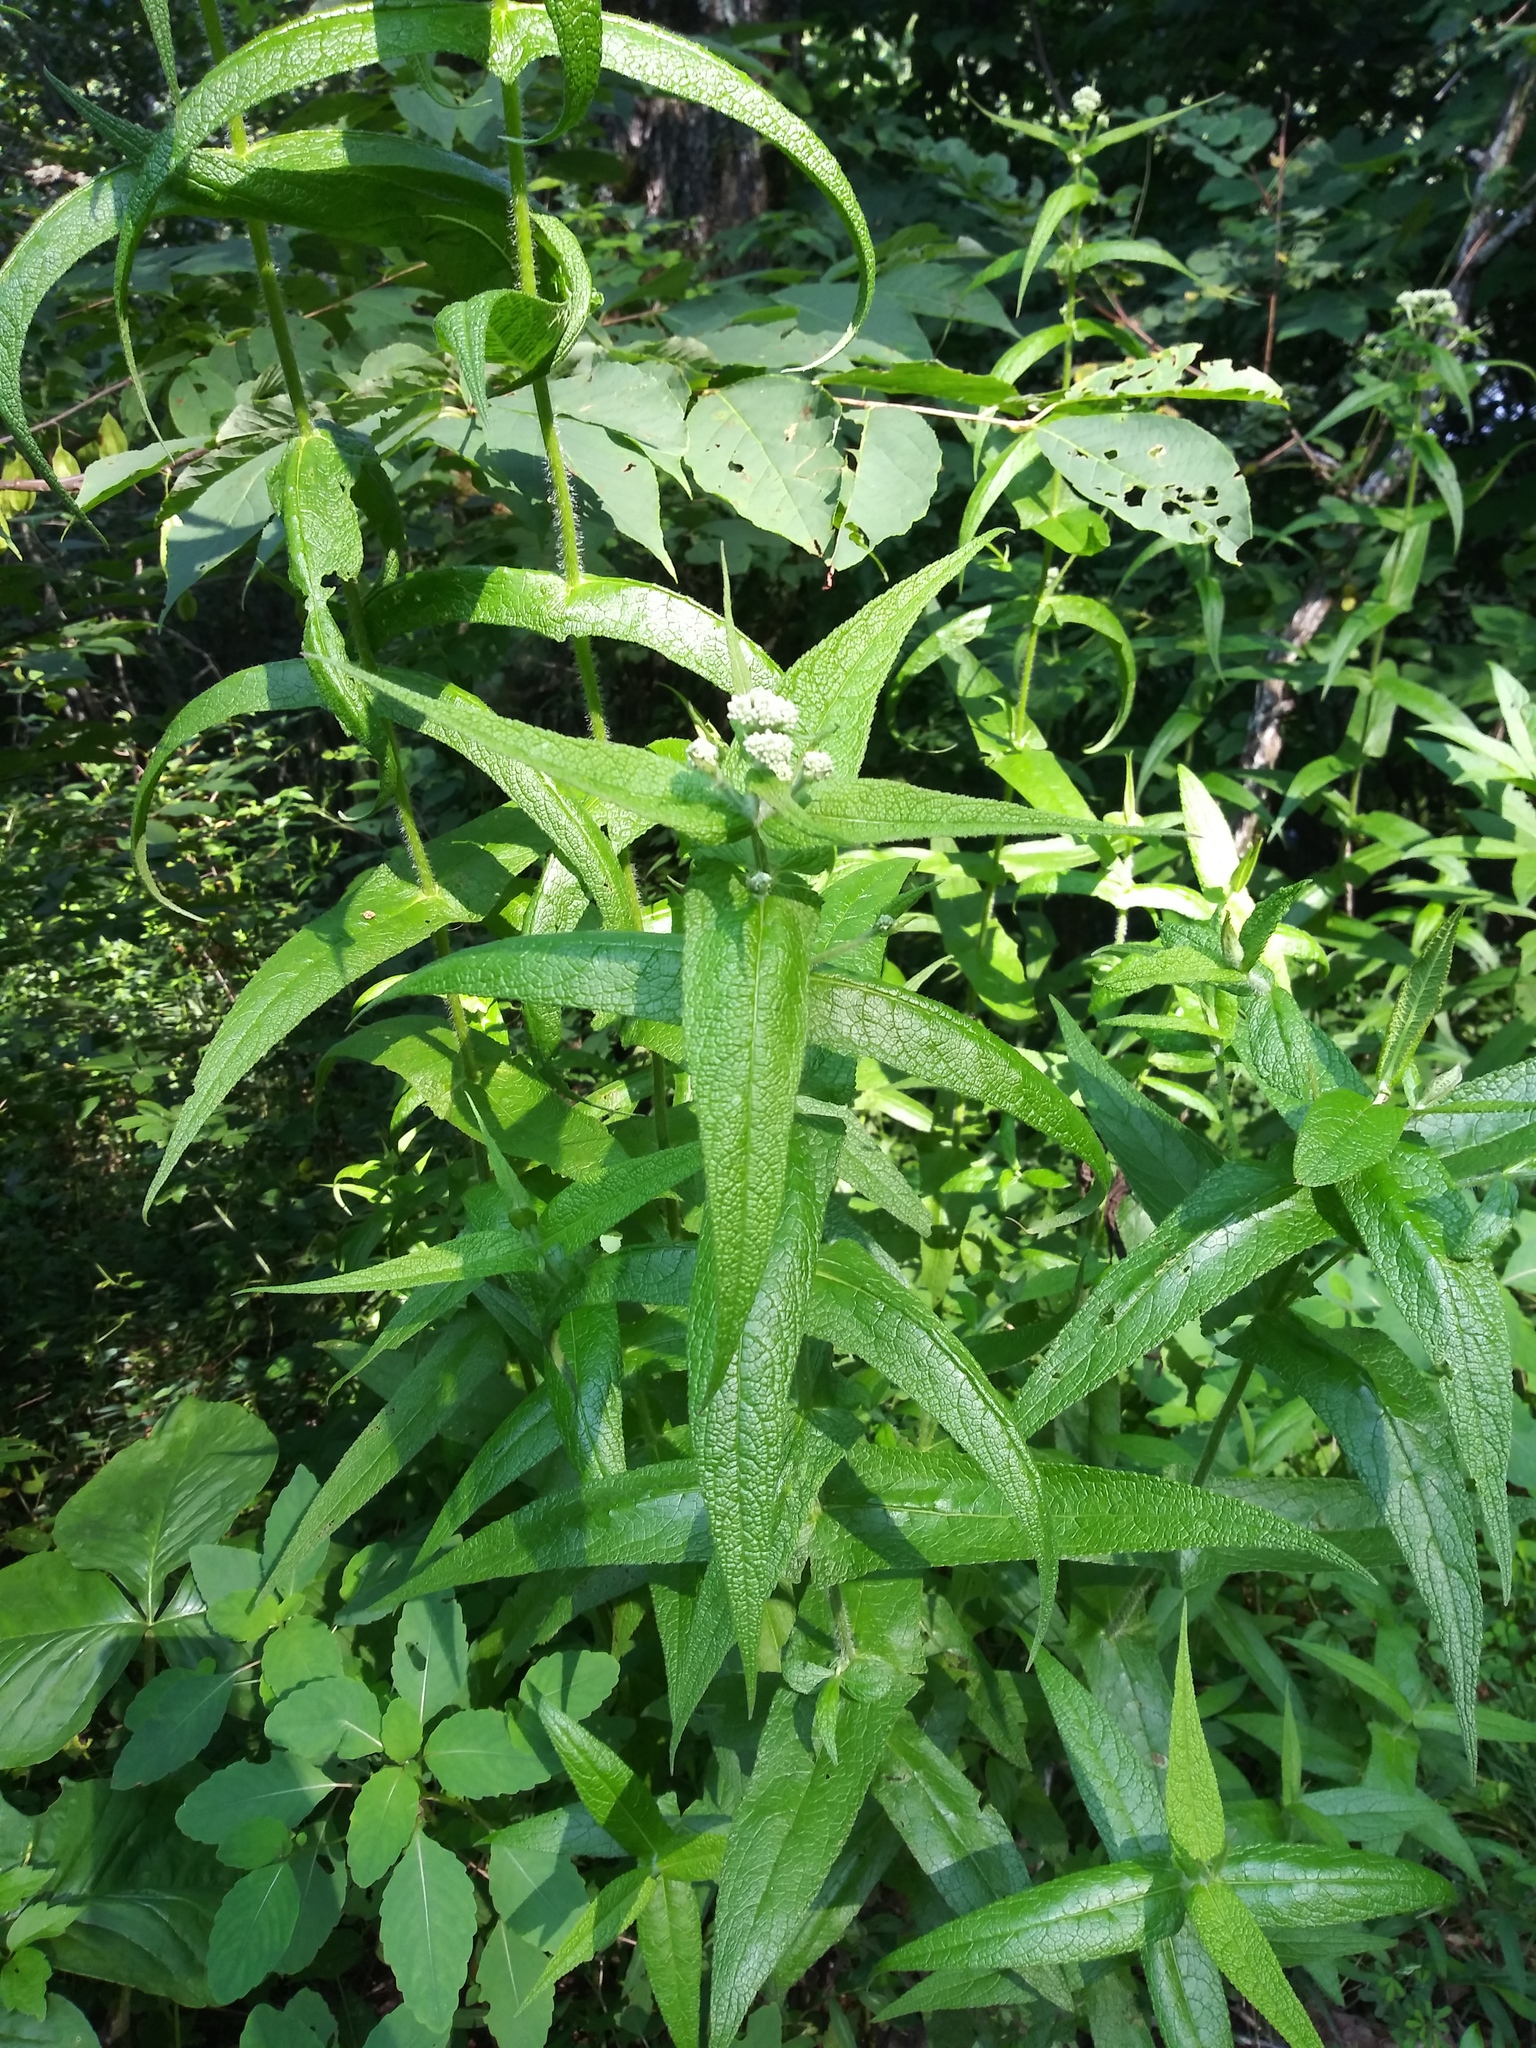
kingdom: Plantae
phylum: Tracheophyta
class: Magnoliopsida
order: Asterales
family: Asteraceae
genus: Eupatorium
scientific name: Eupatorium perfoliatum
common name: Boneset
